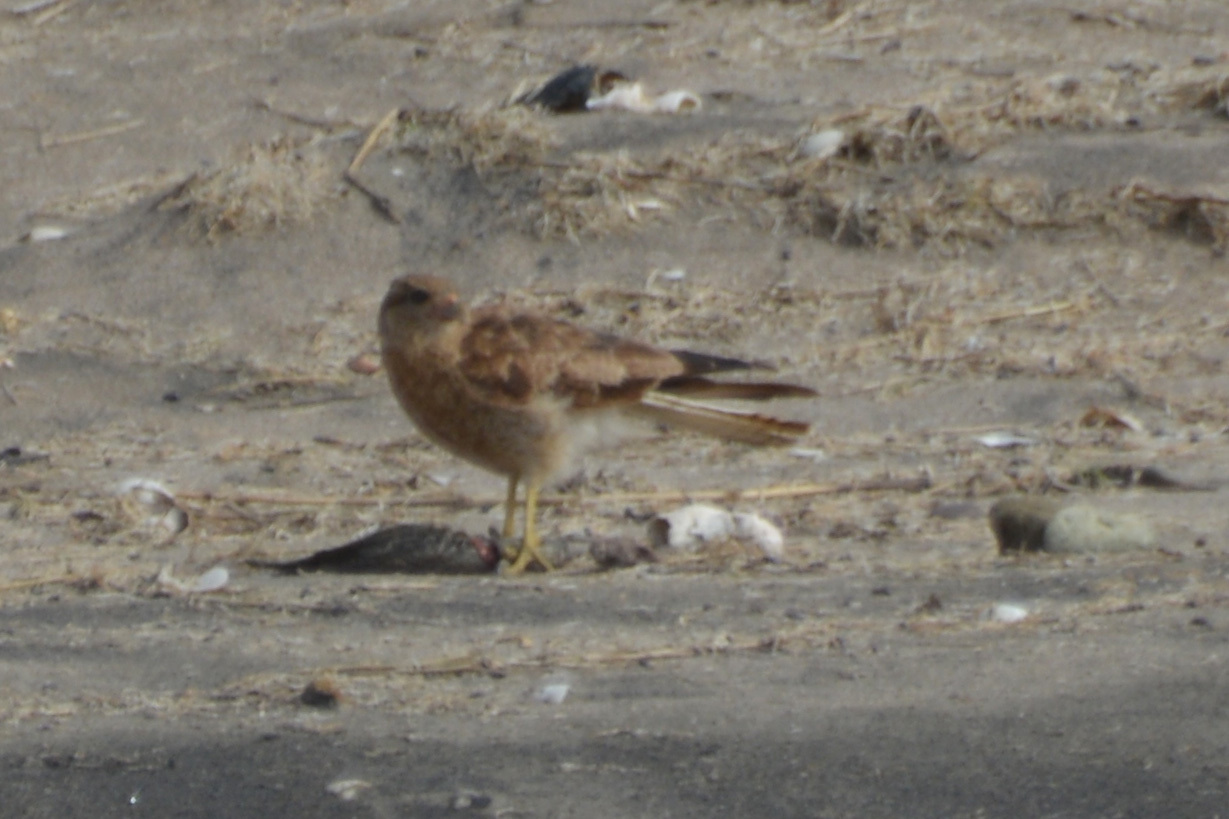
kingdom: Animalia
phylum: Chordata
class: Aves
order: Falconiformes
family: Falconidae
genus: Daptrius
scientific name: Daptrius
